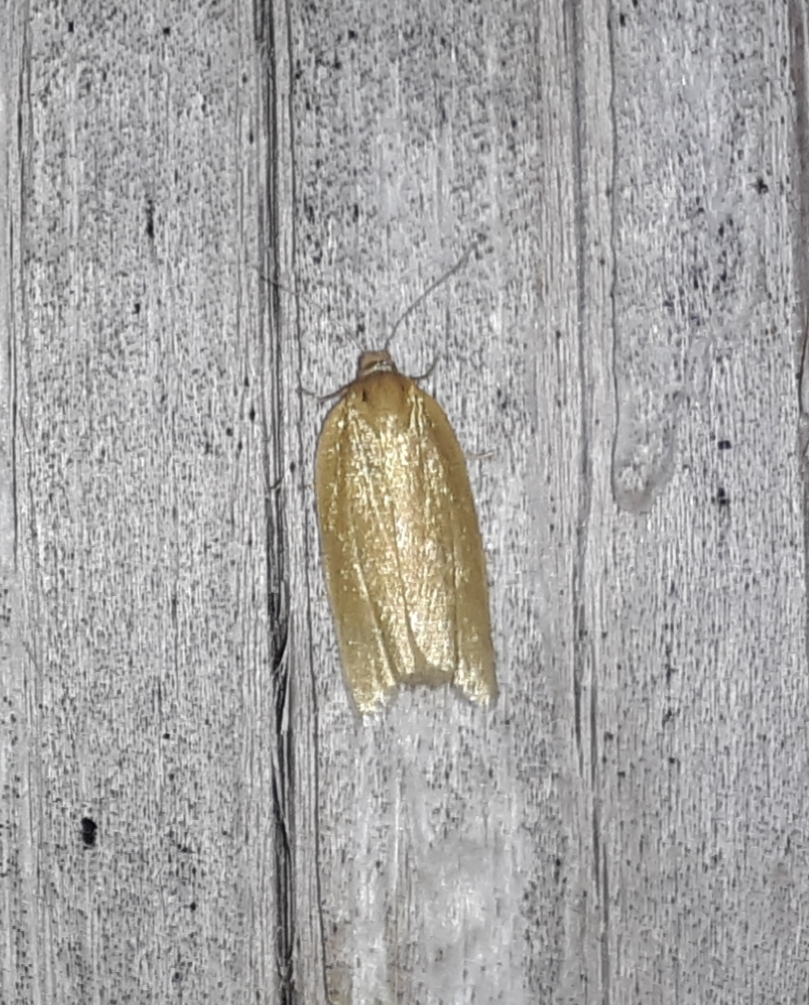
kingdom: Animalia
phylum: Arthropoda
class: Insecta
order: Lepidoptera
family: Tortricidae
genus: Clepsis
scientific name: Clepsis clemensiana
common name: Clemens' clepsis moth
